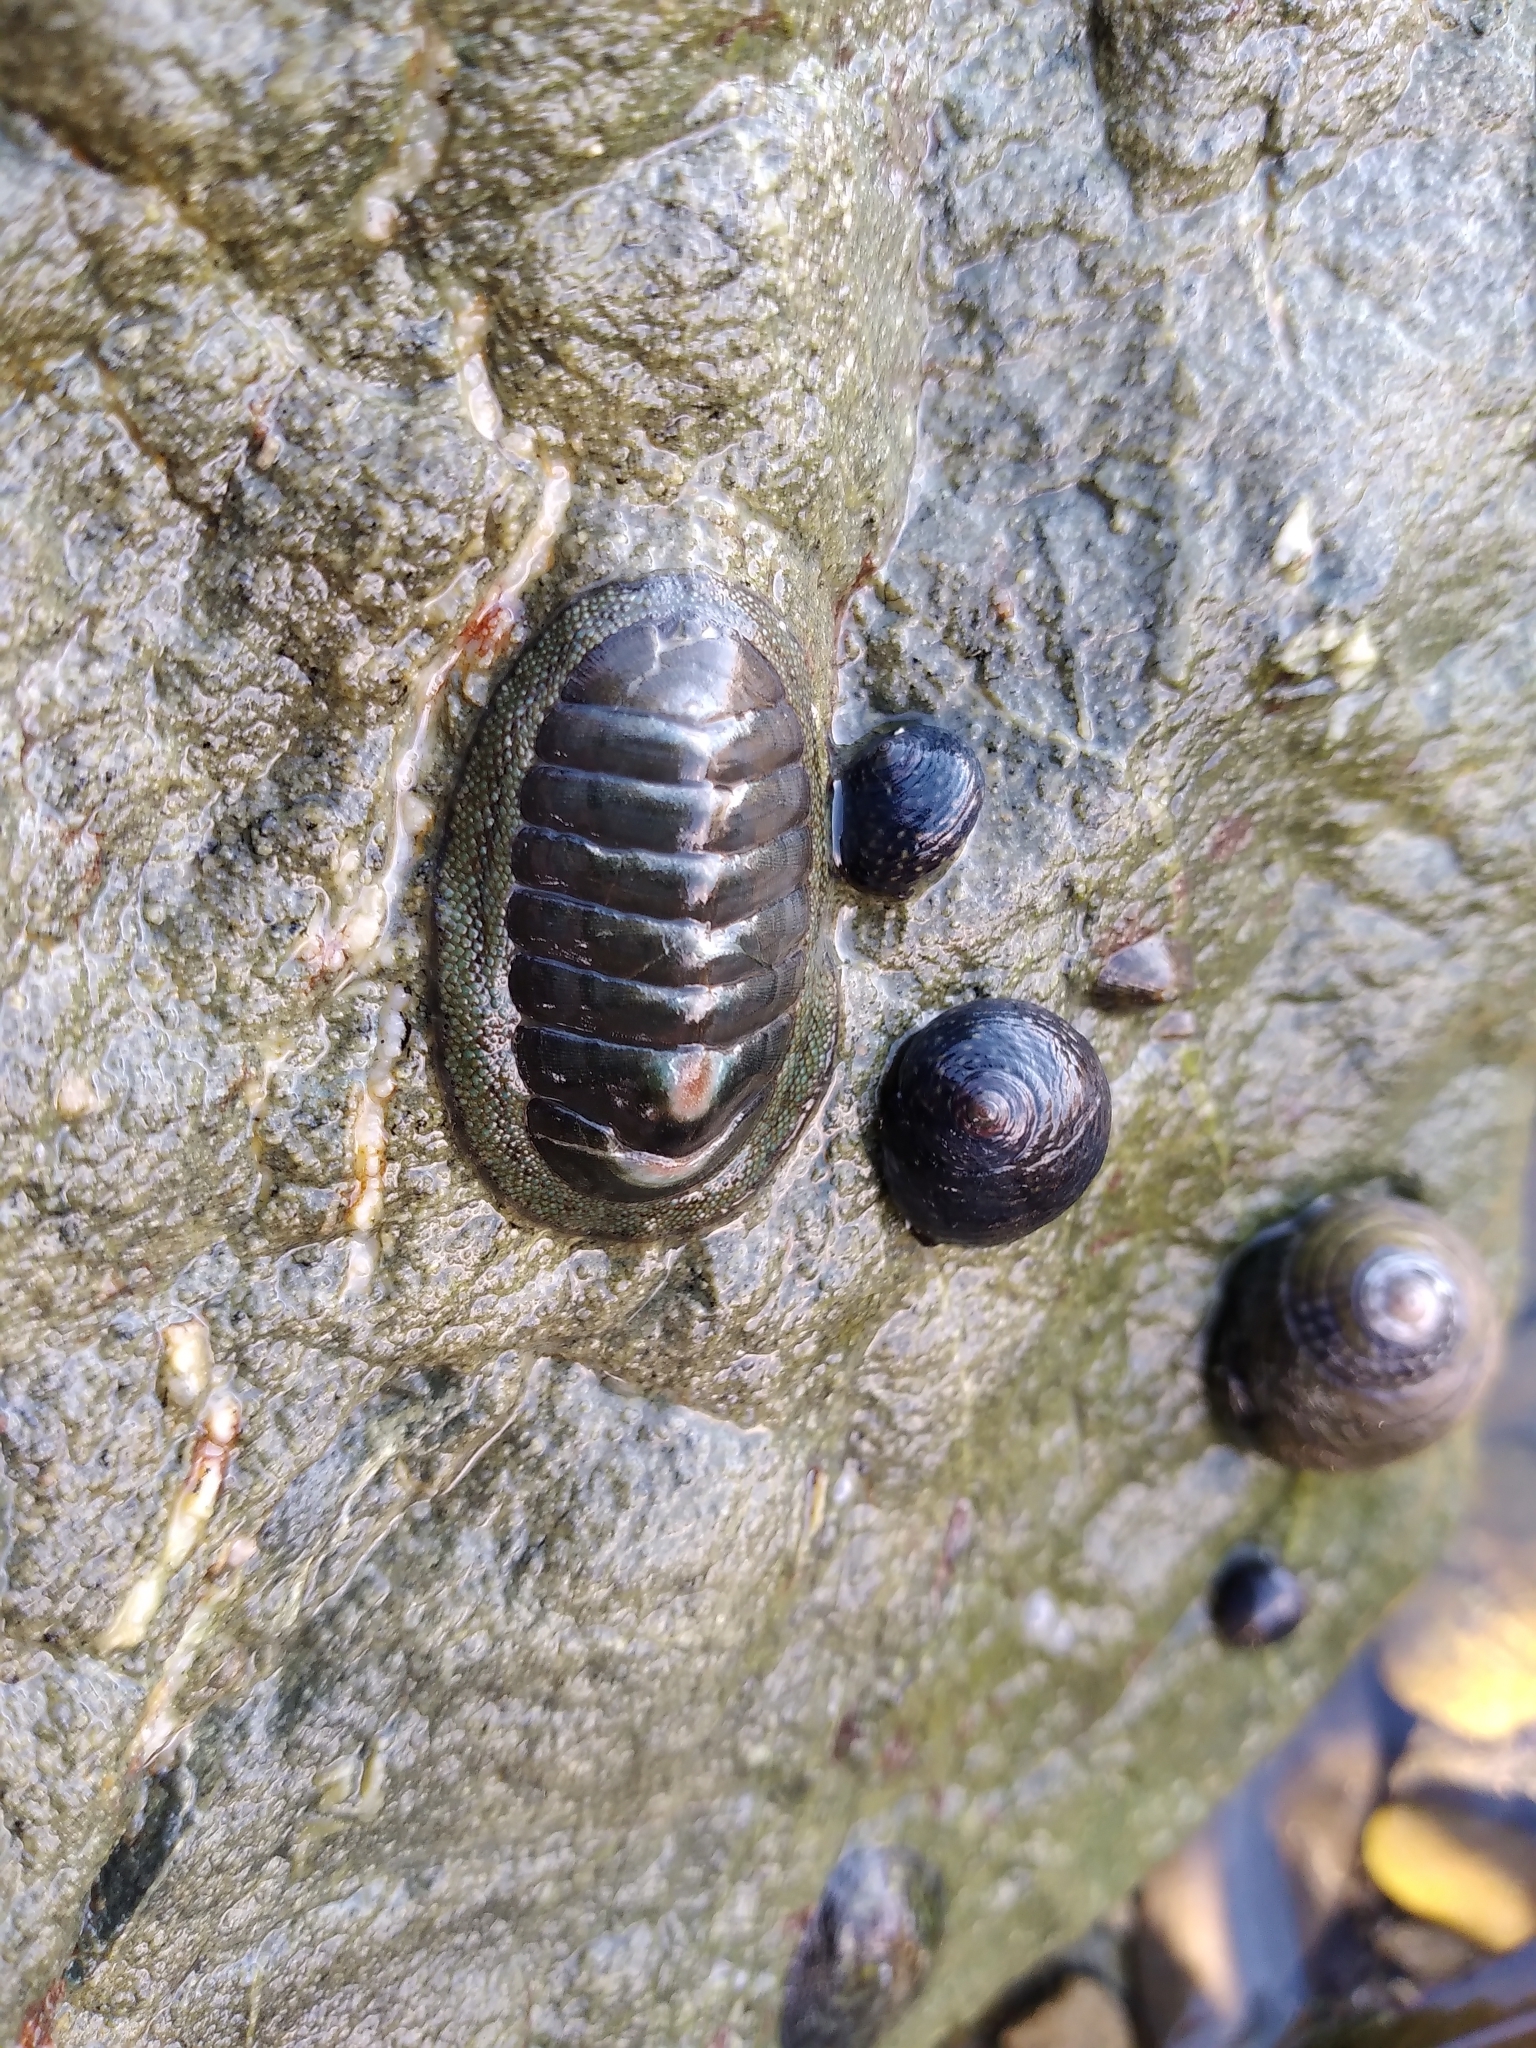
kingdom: Animalia
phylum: Mollusca
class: Polyplacophora
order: Chitonida
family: Chitonidae
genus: Chiton
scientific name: Chiton glaucus
